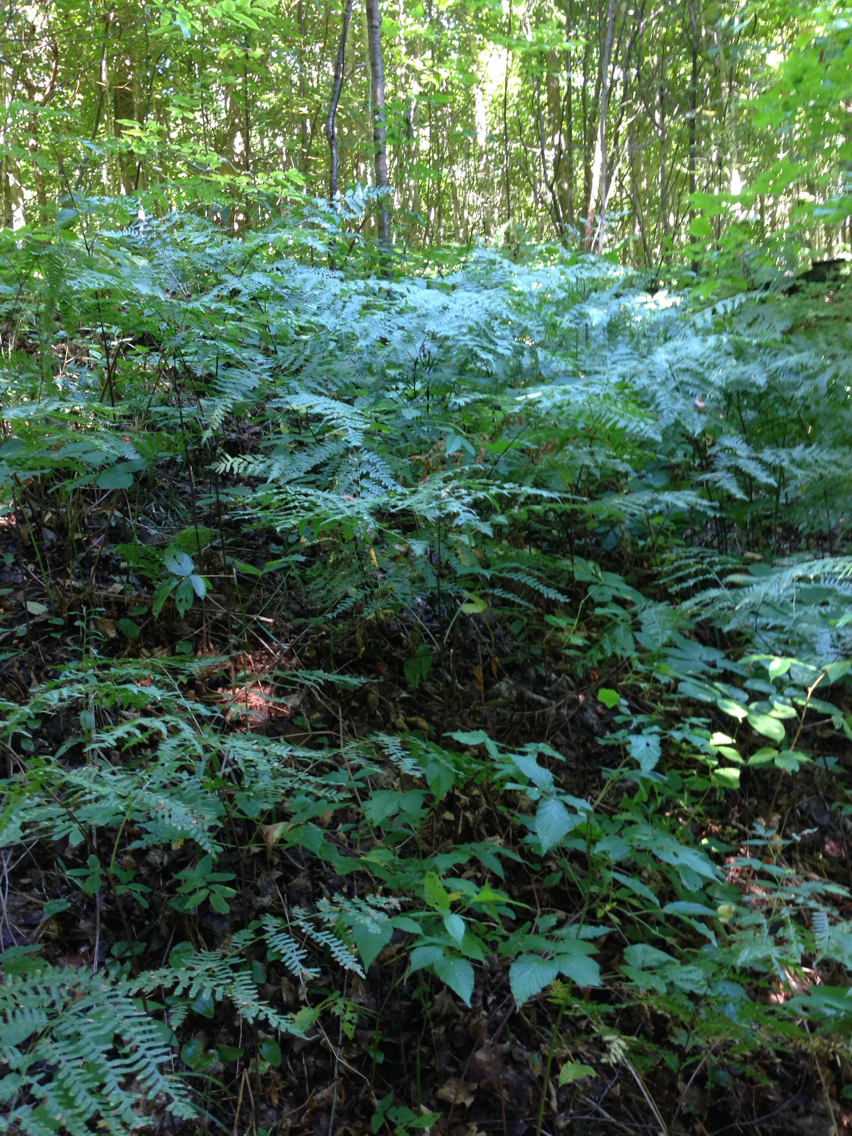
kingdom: Plantae
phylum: Tracheophyta
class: Polypodiopsida
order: Polypodiales
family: Dennstaedtiaceae
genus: Pteridium
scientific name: Pteridium aquilinum
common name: Bracken
